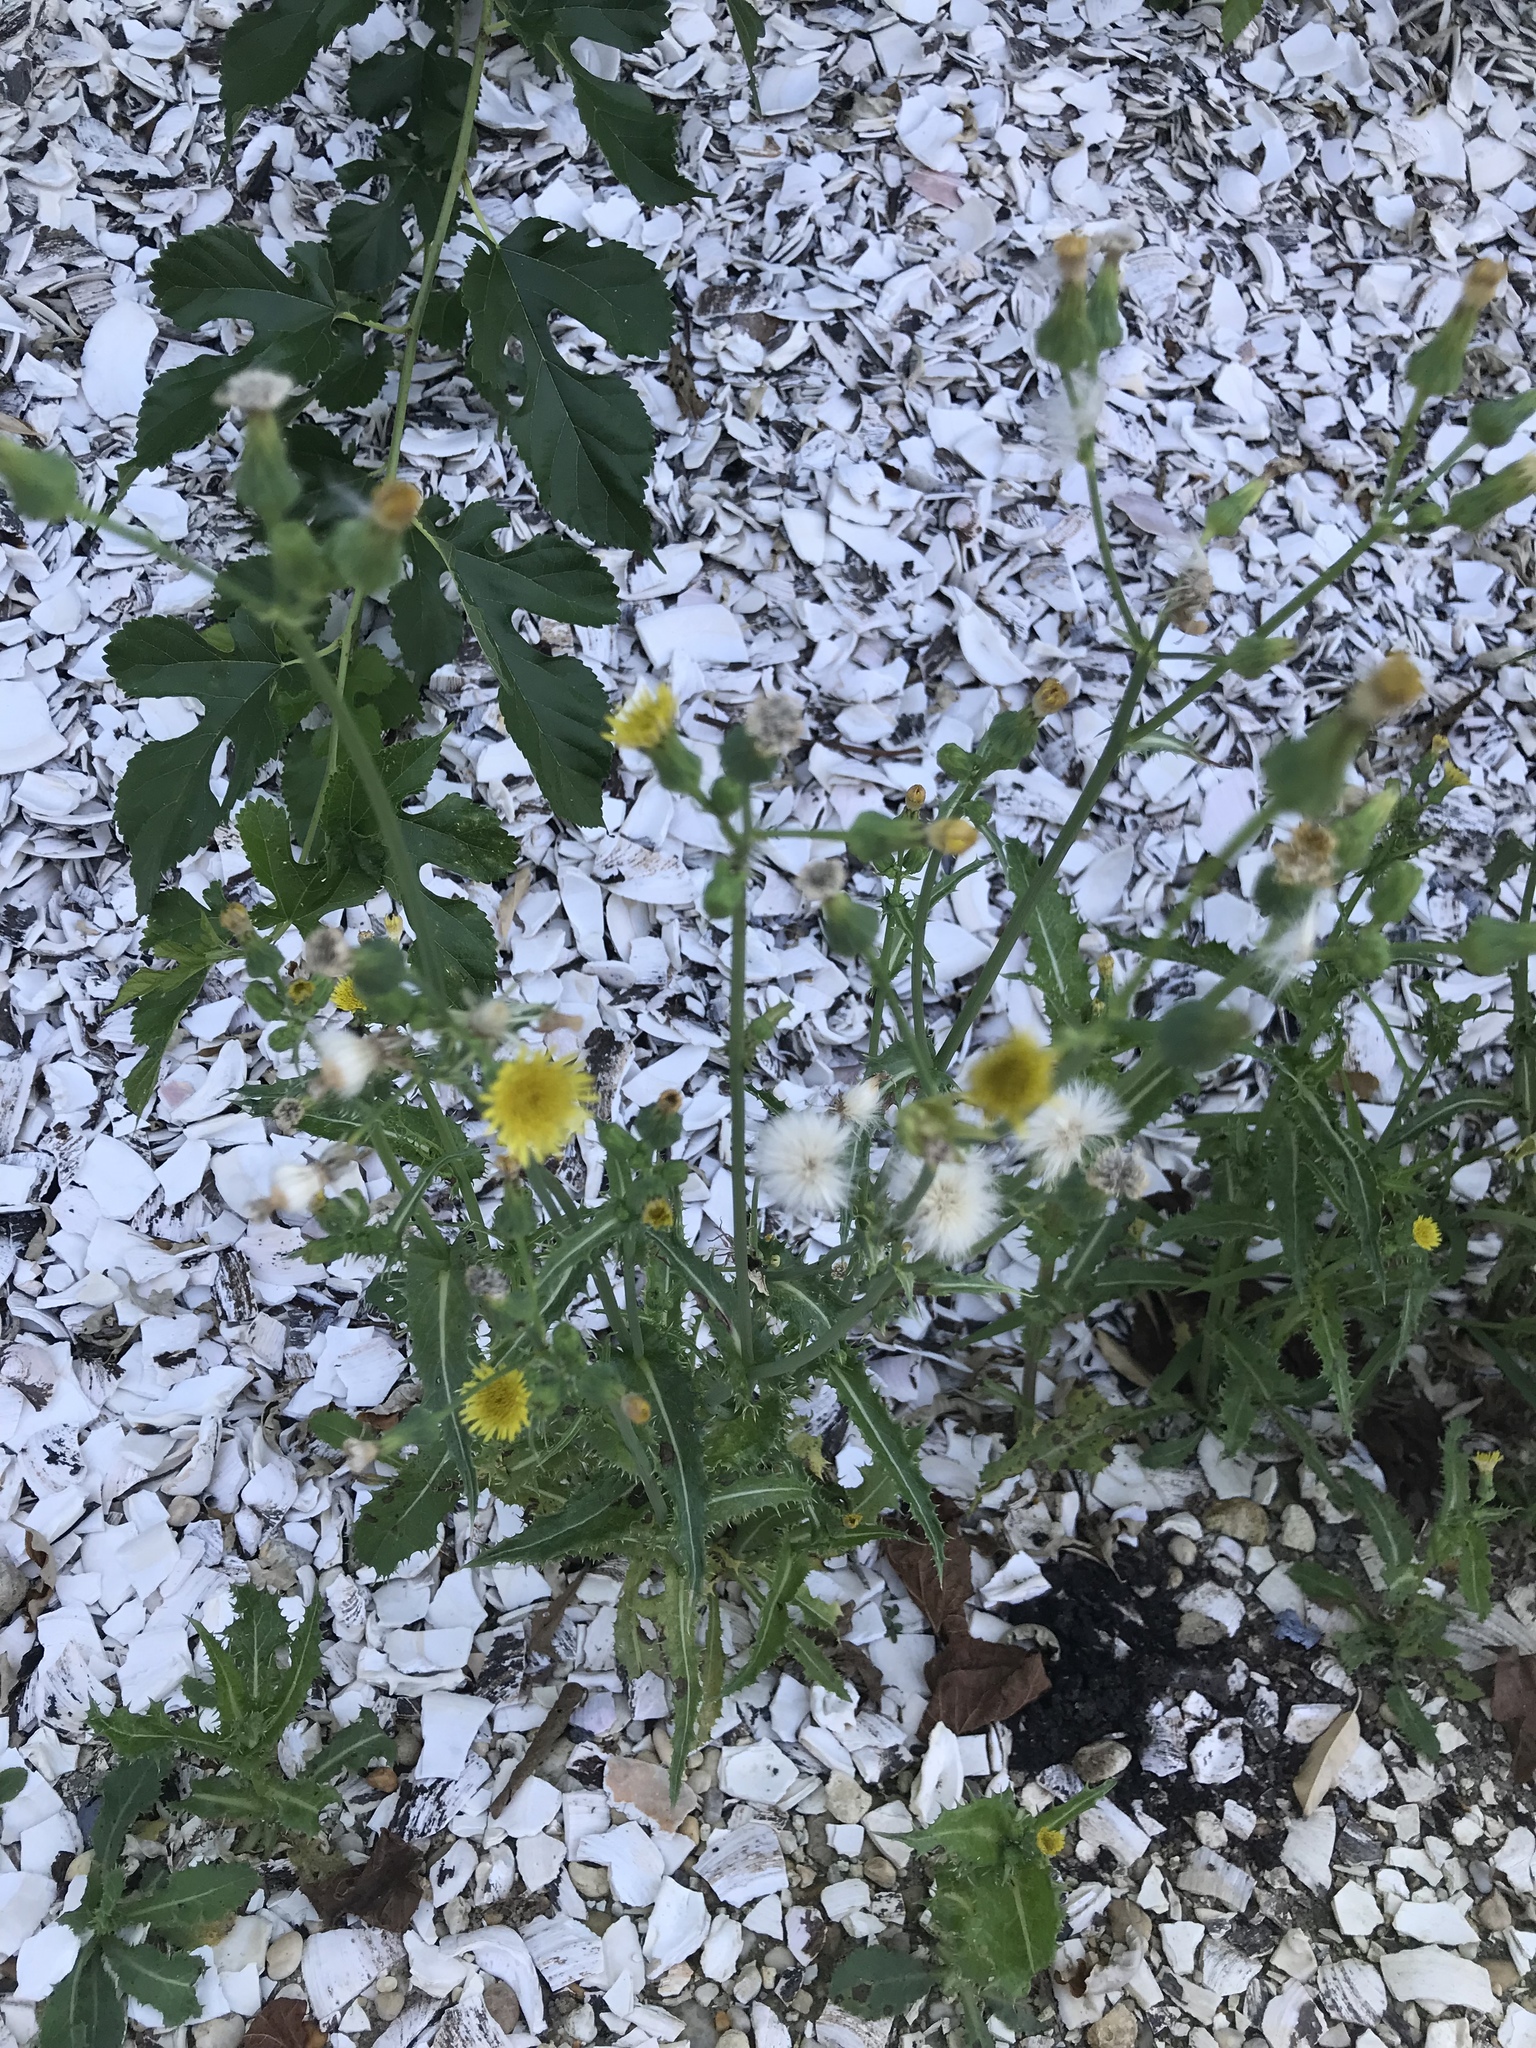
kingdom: Plantae
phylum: Tracheophyta
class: Magnoliopsida
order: Asterales
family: Asteraceae
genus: Sonchus
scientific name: Sonchus asper
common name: Prickly sow-thistle
